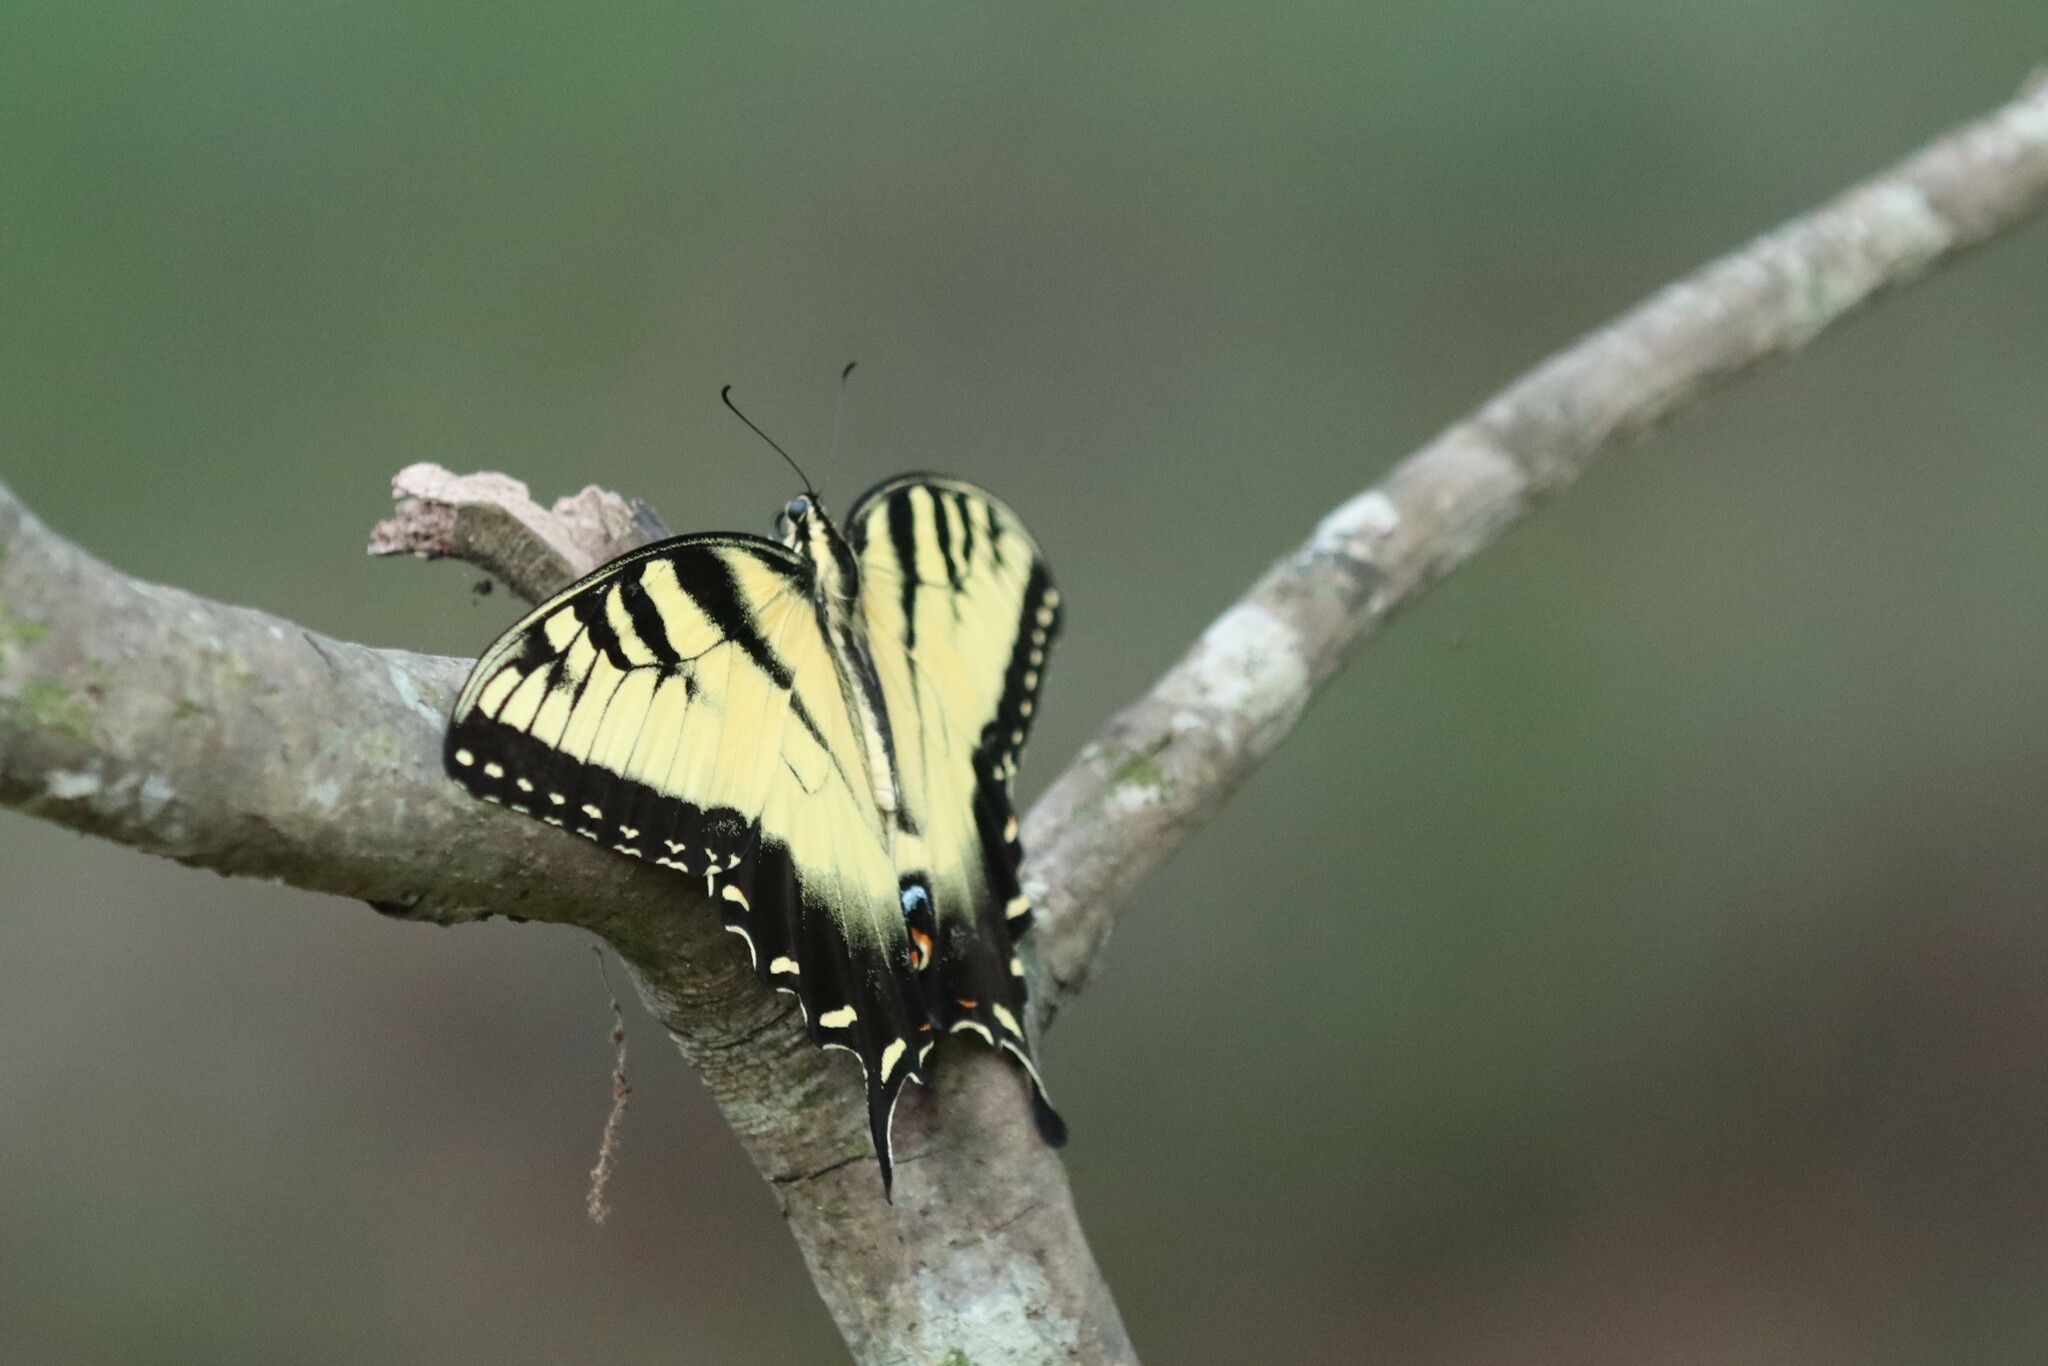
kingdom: Animalia
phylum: Arthropoda
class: Insecta
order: Lepidoptera
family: Papilionidae
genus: Papilio
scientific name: Papilio glaucus
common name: Tiger swallowtail
